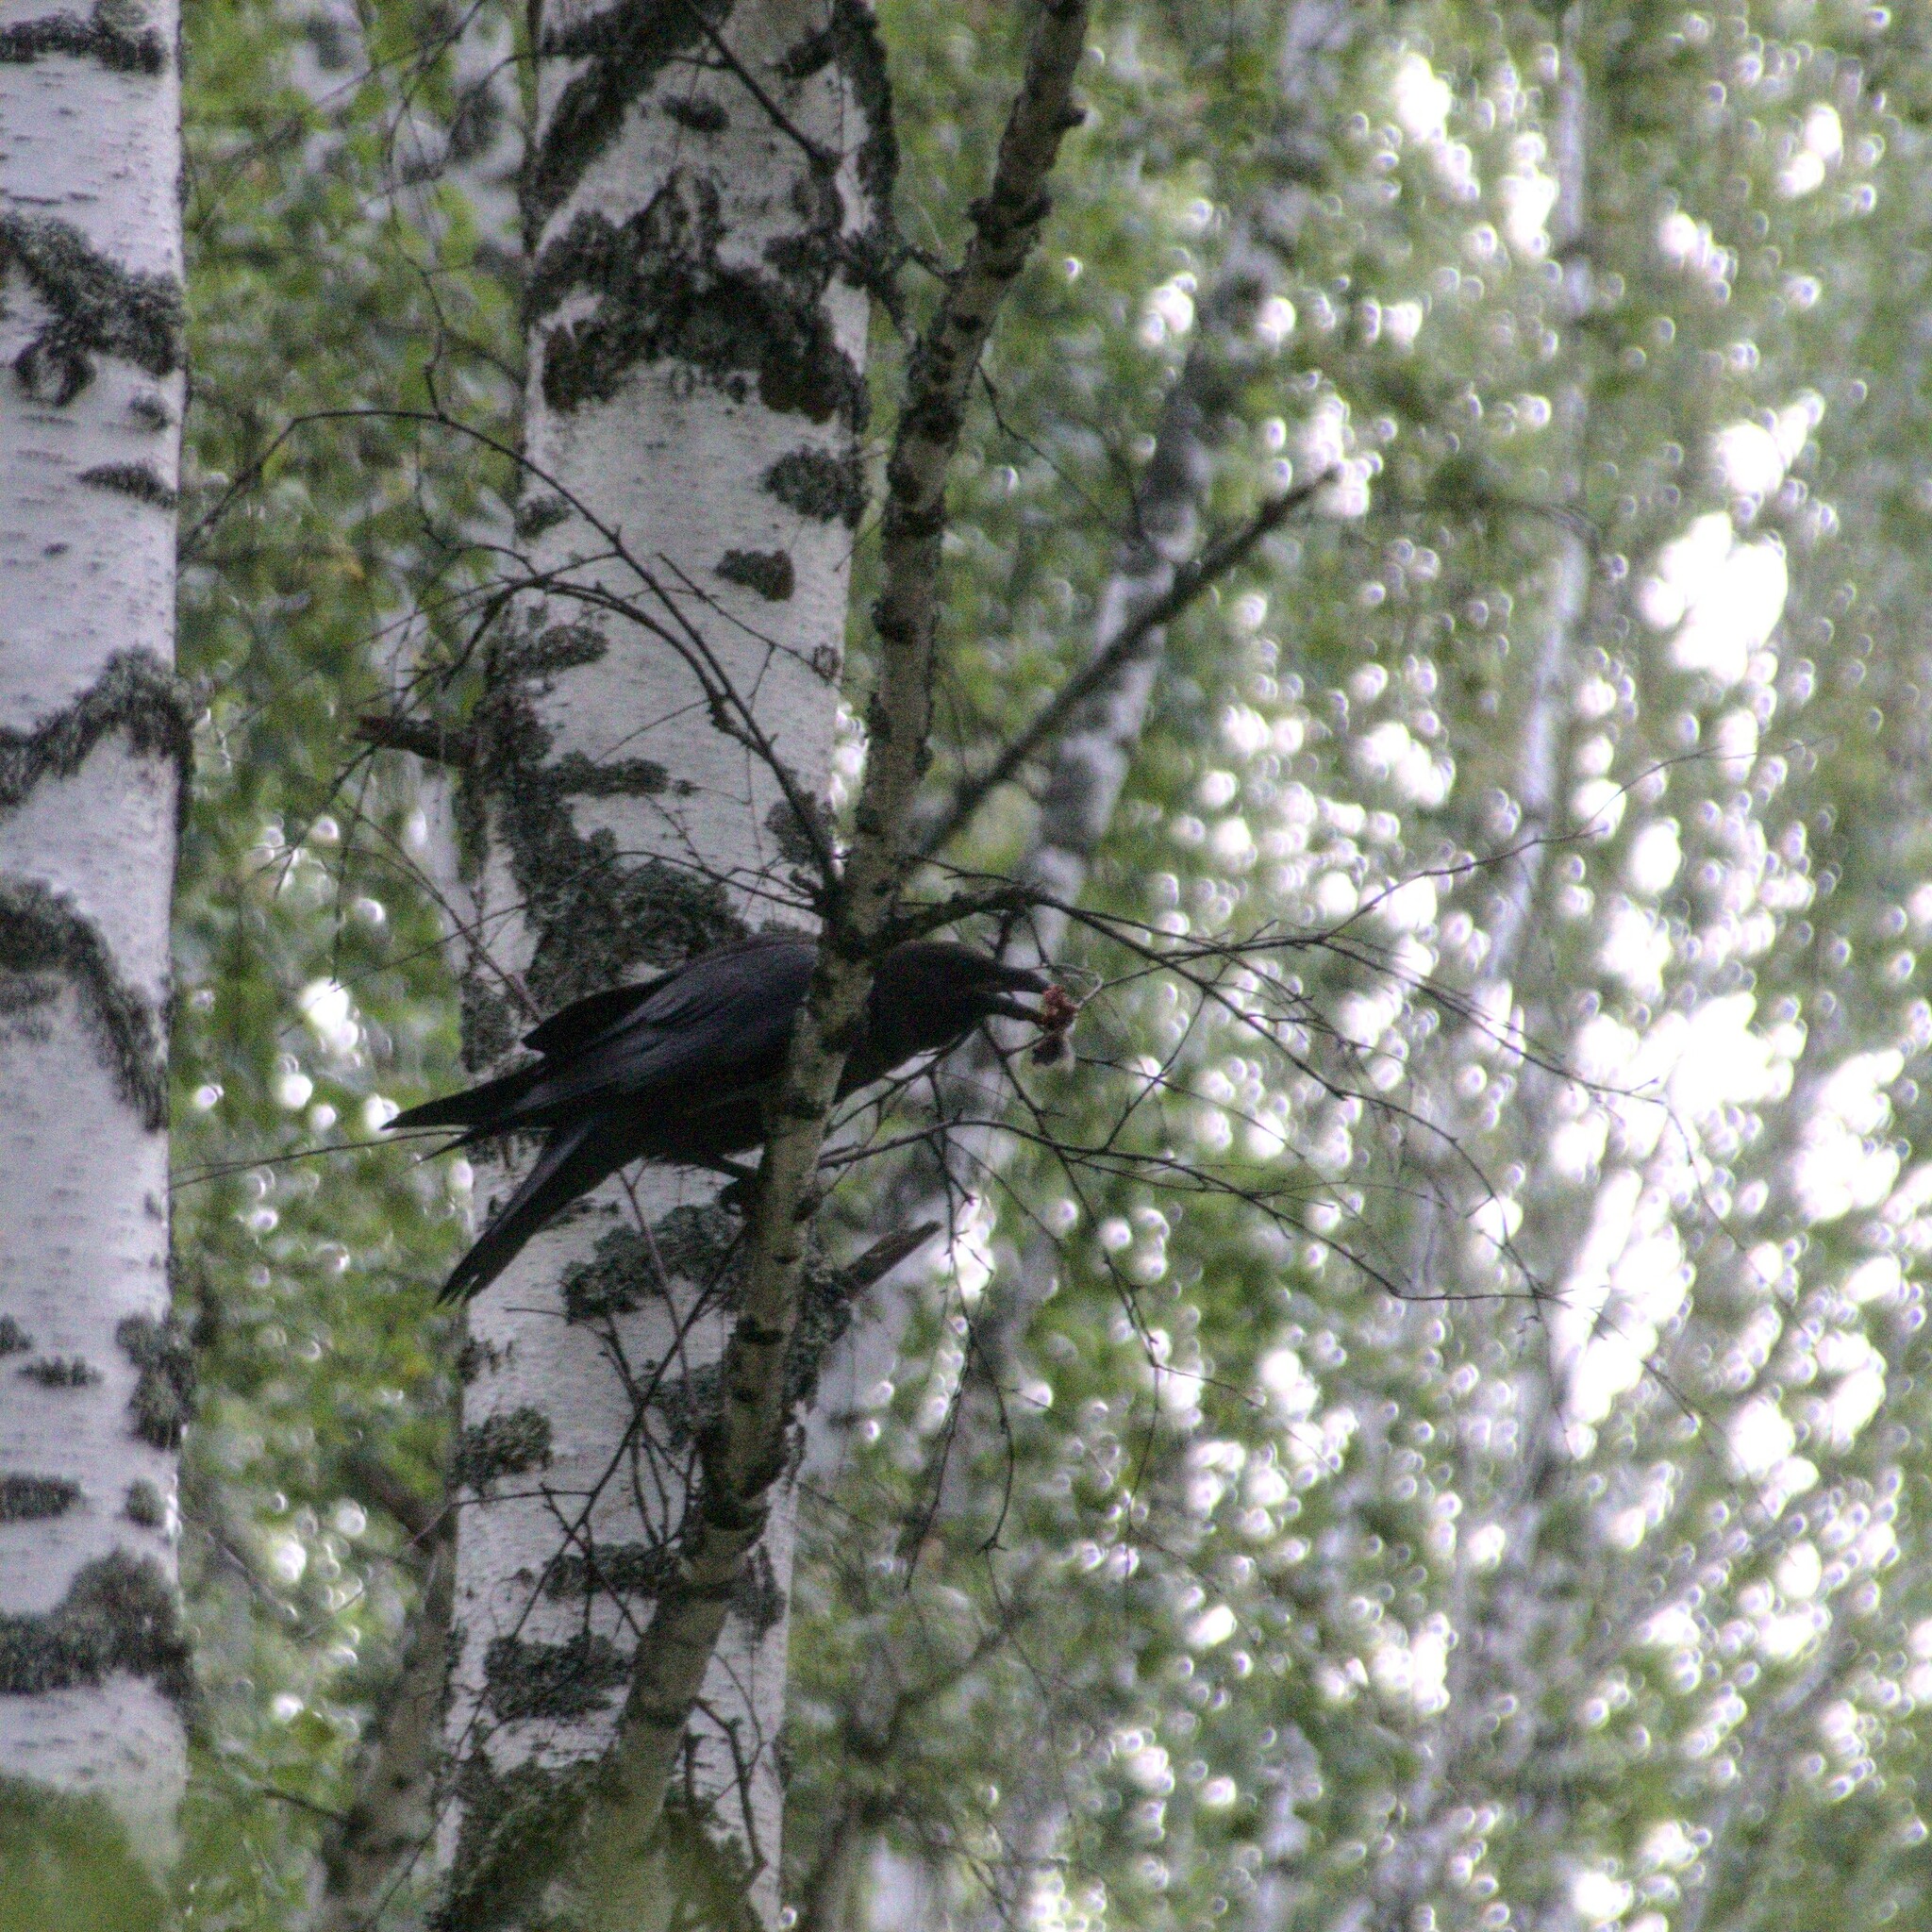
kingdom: Animalia
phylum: Chordata
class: Aves
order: Passeriformes
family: Corvidae
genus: Corvus
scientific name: Corvus corax
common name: Common raven
